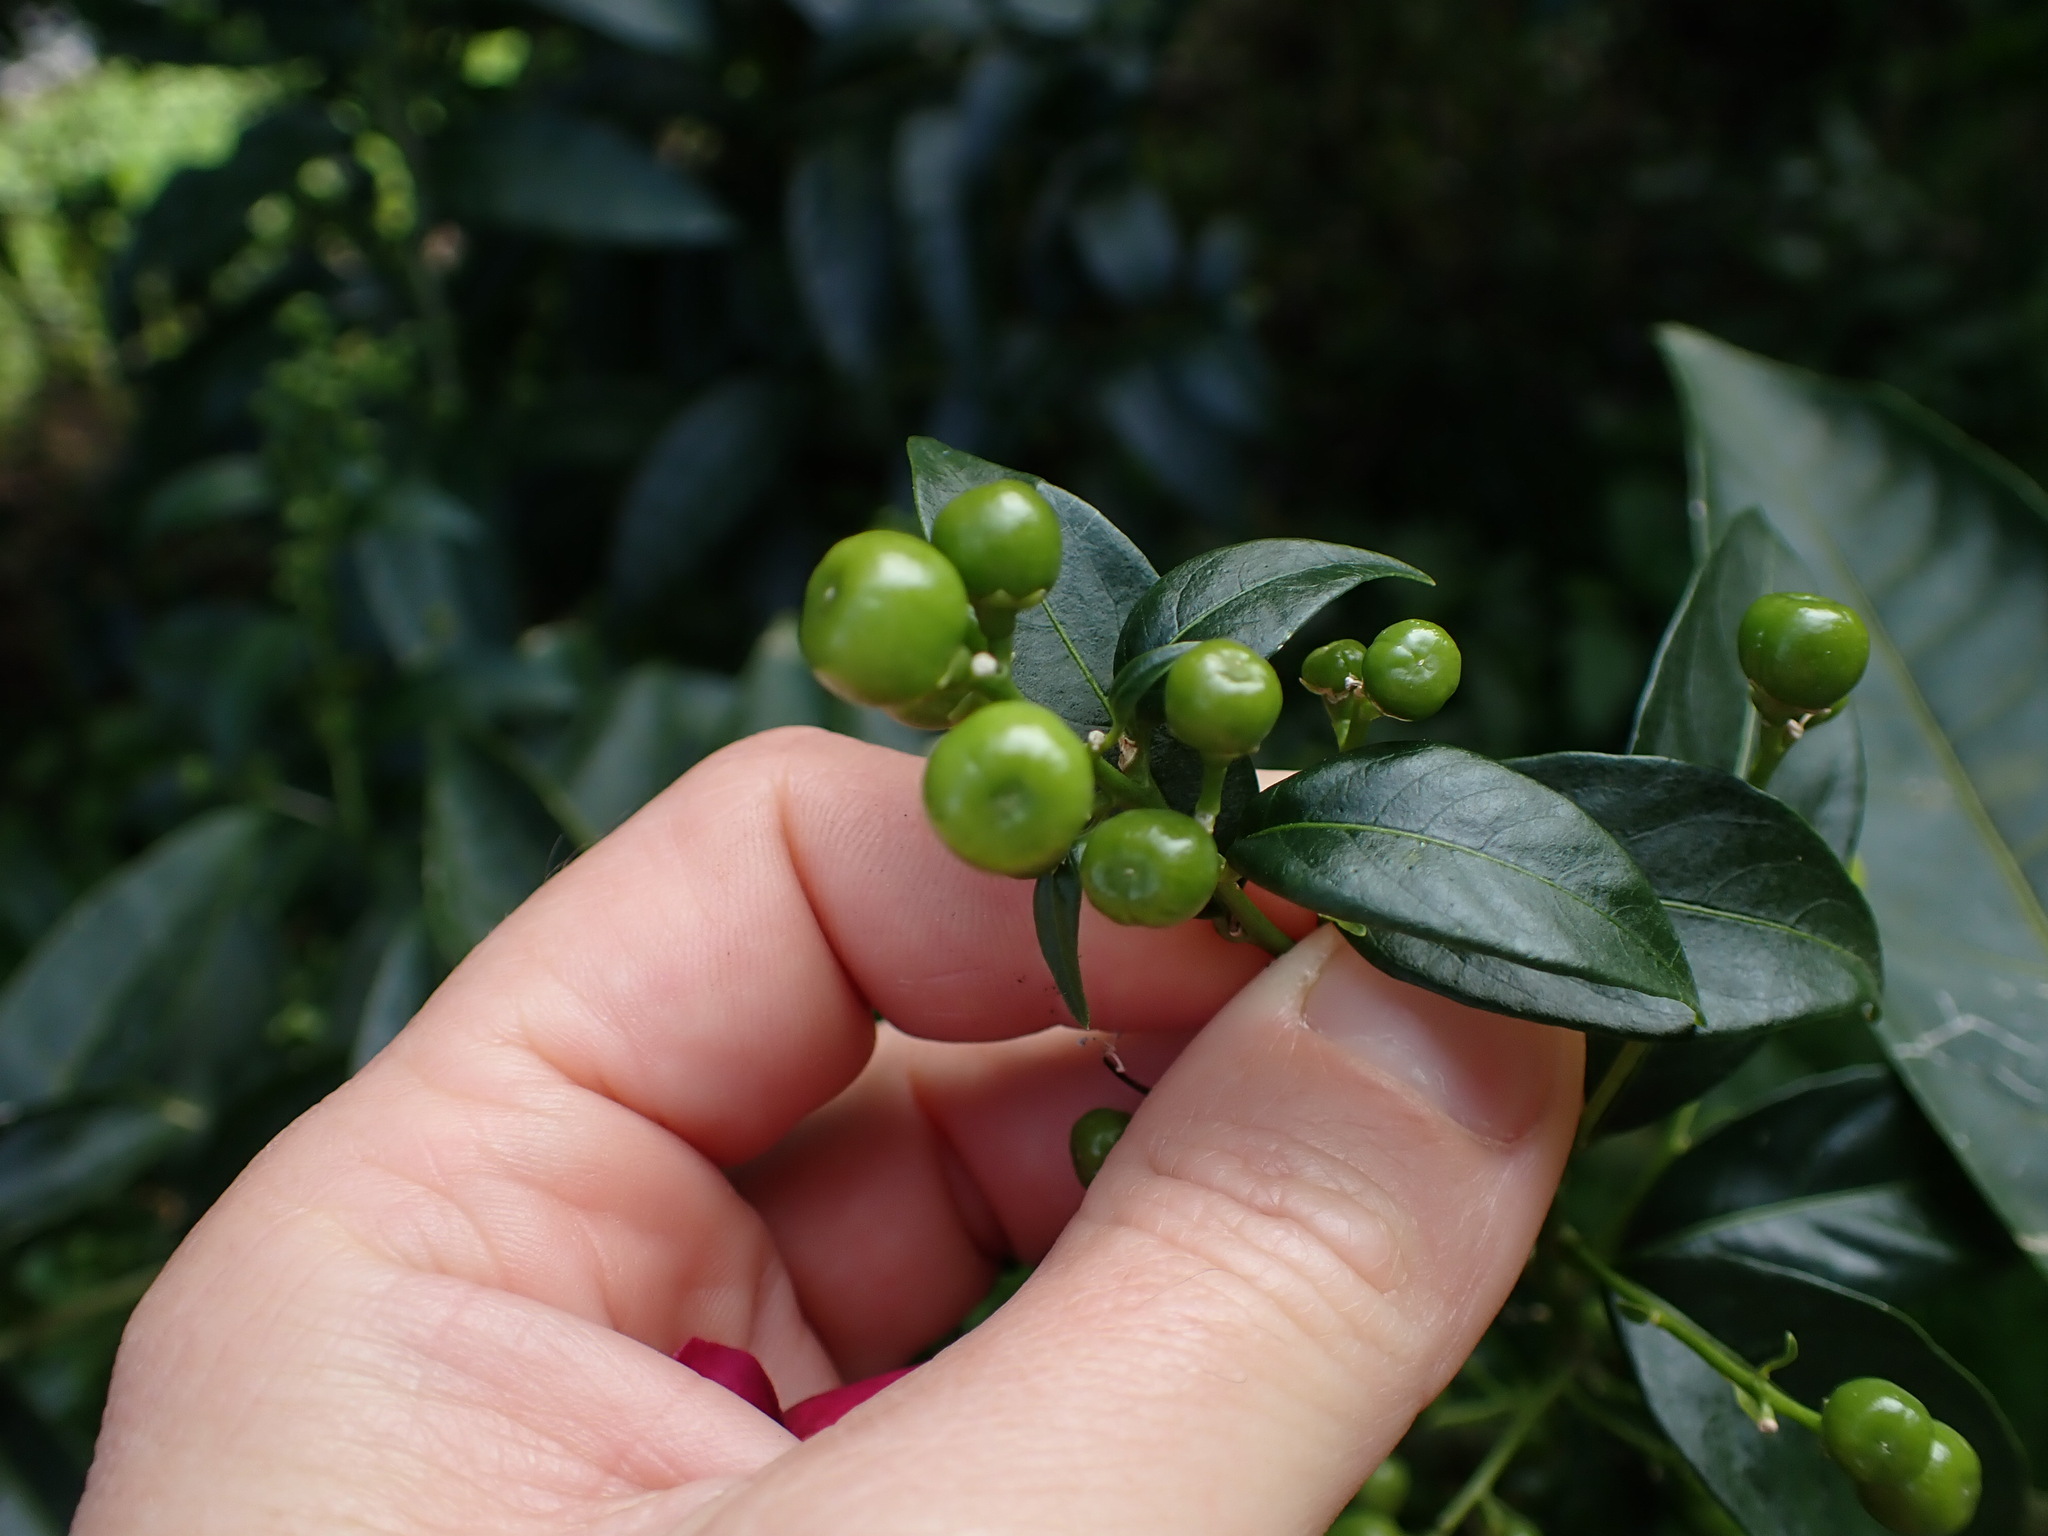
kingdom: Plantae
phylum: Tracheophyta
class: Magnoliopsida
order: Solanales
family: Solanaceae
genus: Cestrum
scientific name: Cestrum nocturnum
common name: Night jessamine
